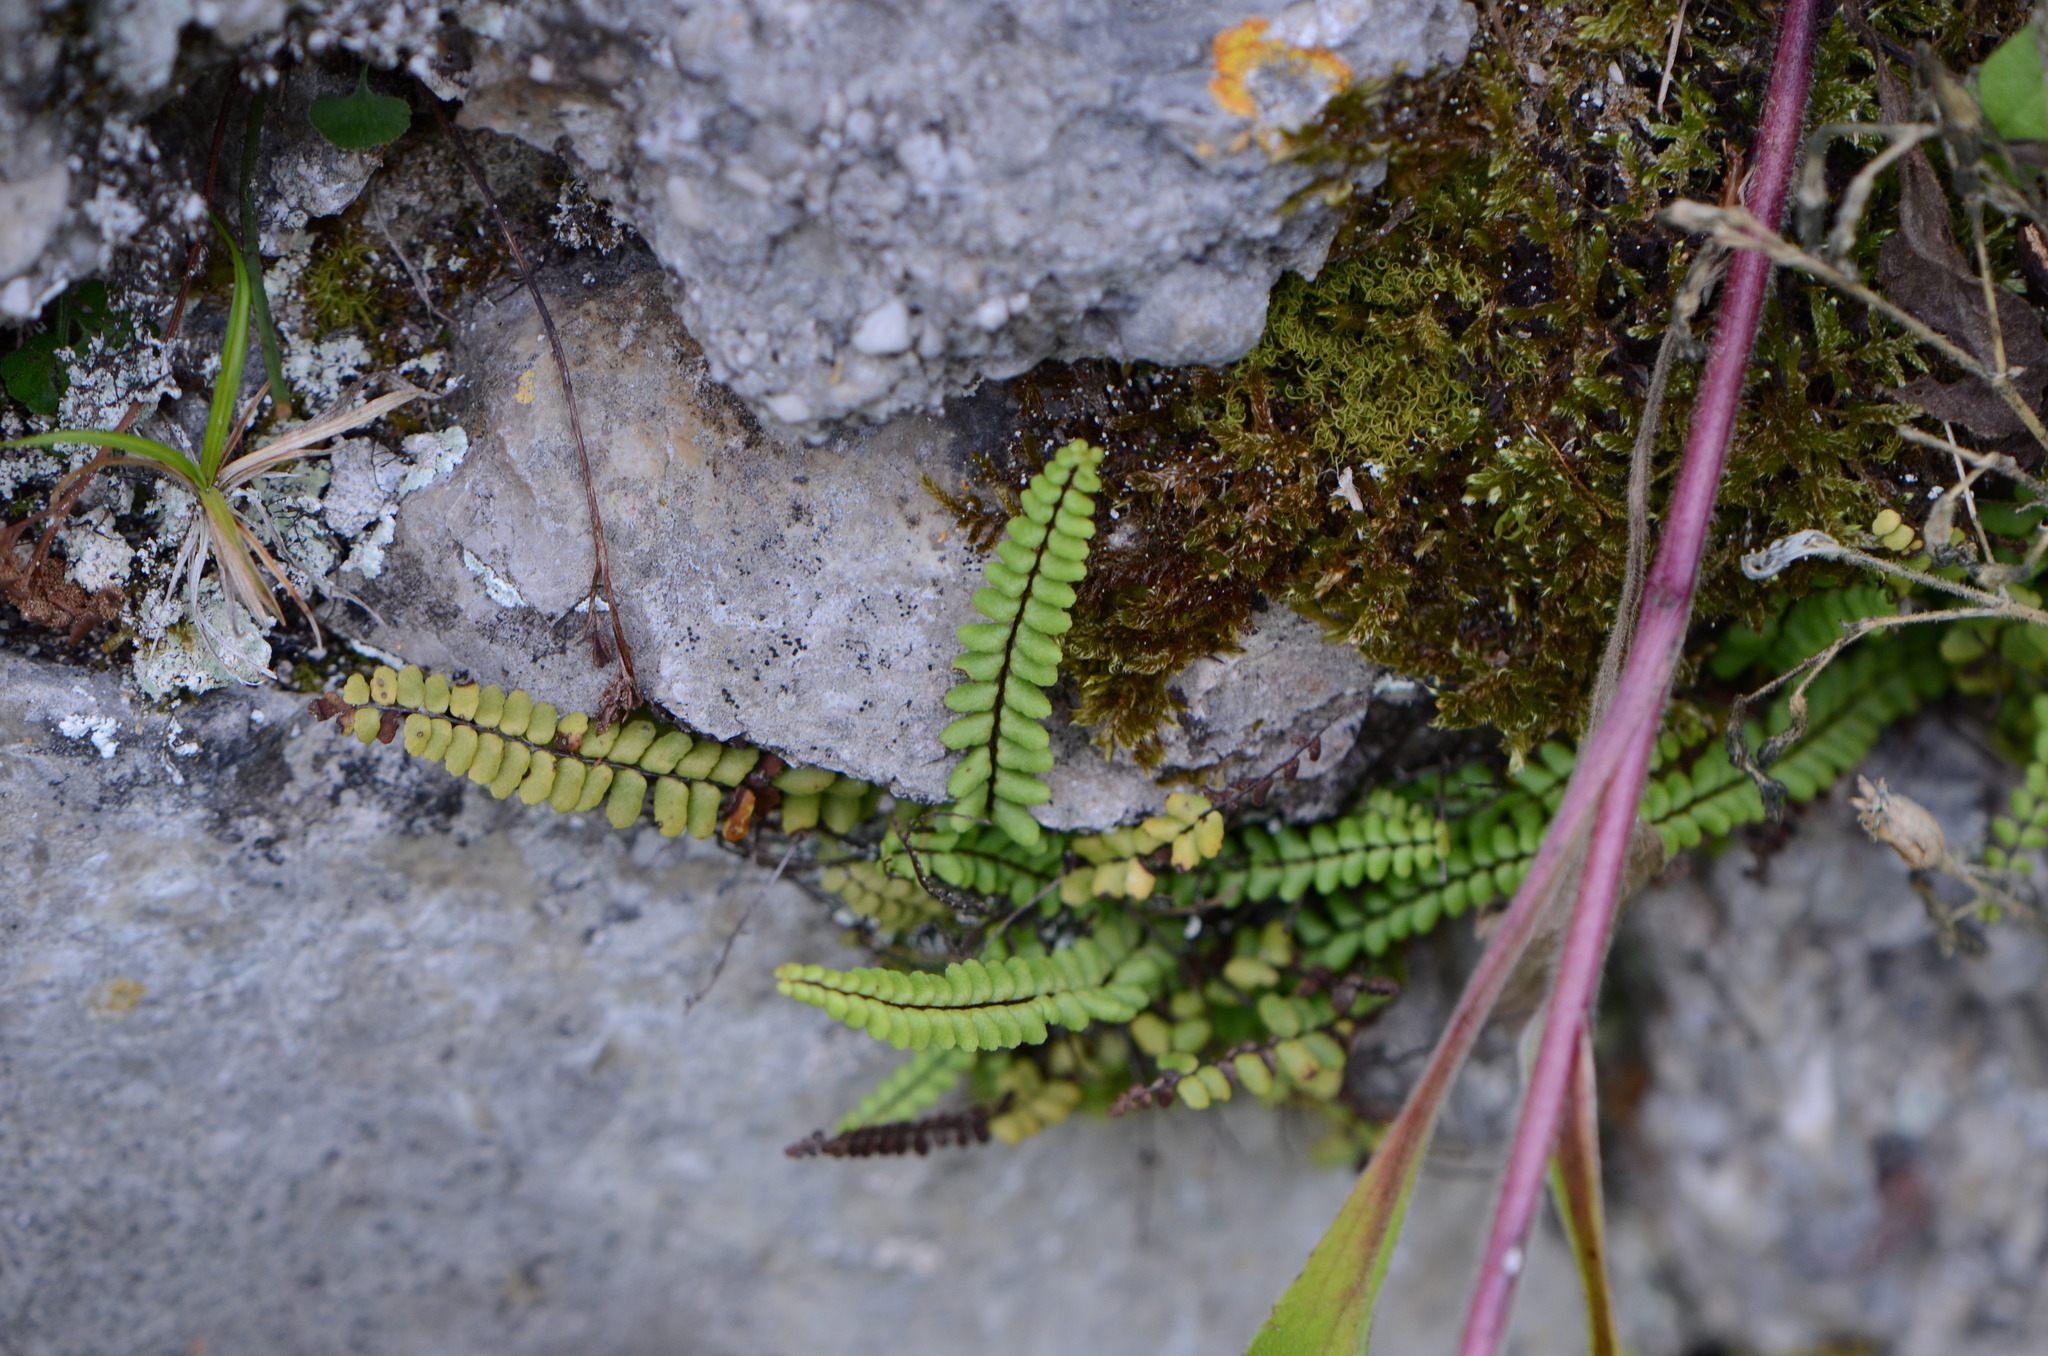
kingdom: Plantae
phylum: Tracheophyta
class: Polypodiopsida
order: Polypodiales
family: Aspleniaceae
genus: Asplenium
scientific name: Asplenium trichomanes
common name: Maidenhair spleenwort
